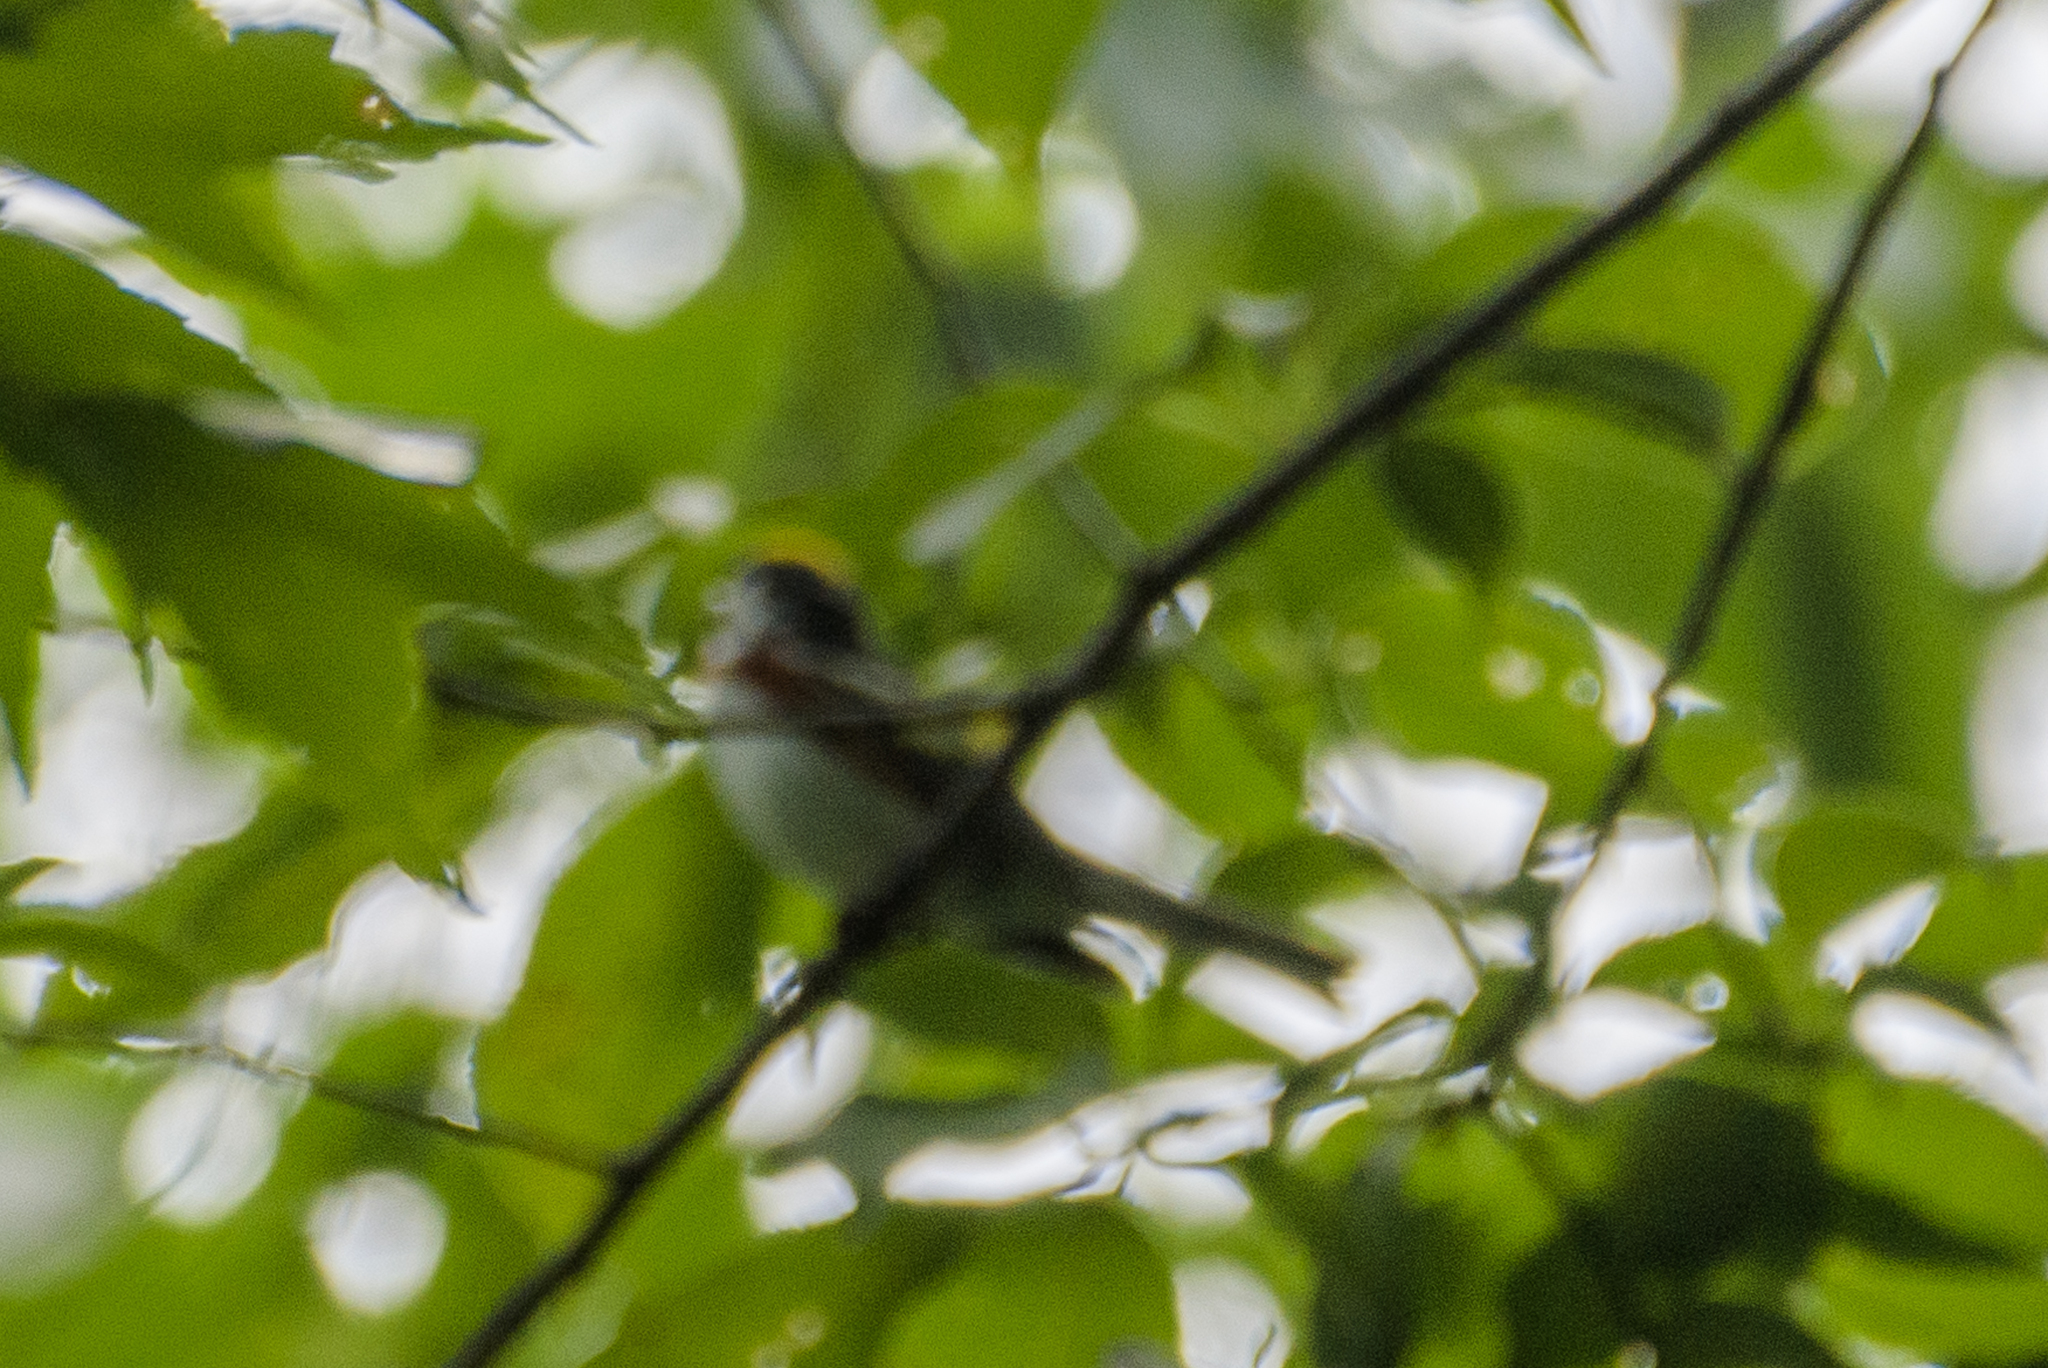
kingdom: Animalia
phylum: Chordata
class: Aves
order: Passeriformes
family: Parulidae
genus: Setophaga
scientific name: Setophaga pensylvanica
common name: Chestnut-sided warbler
